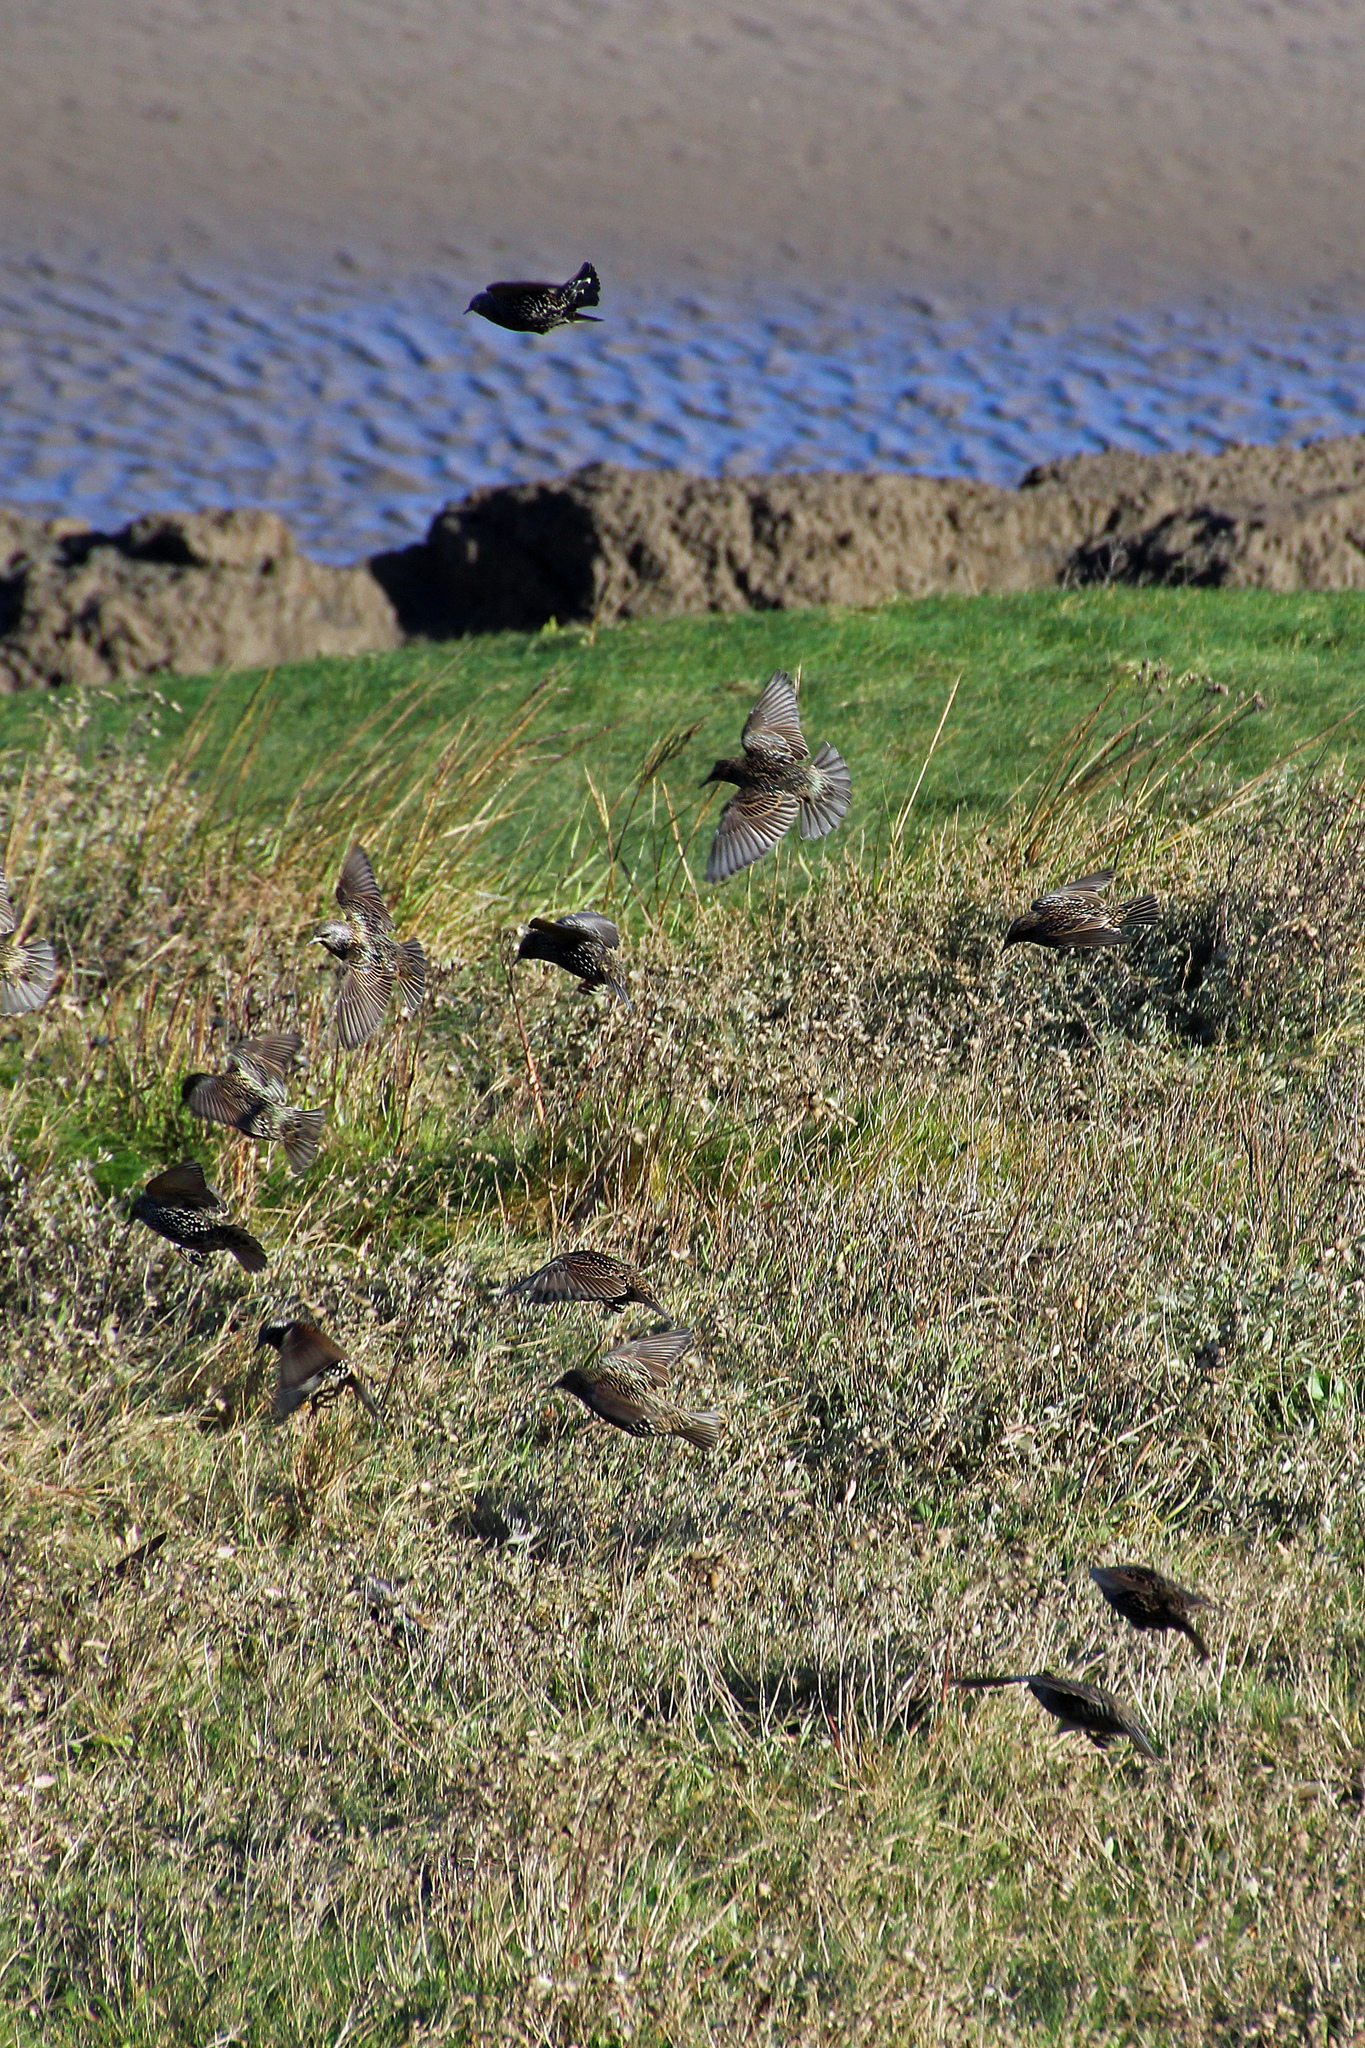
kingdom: Animalia
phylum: Chordata
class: Aves
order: Passeriformes
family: Sturnidae
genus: Sturnus
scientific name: Sturnus vulgaris
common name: Common starling
